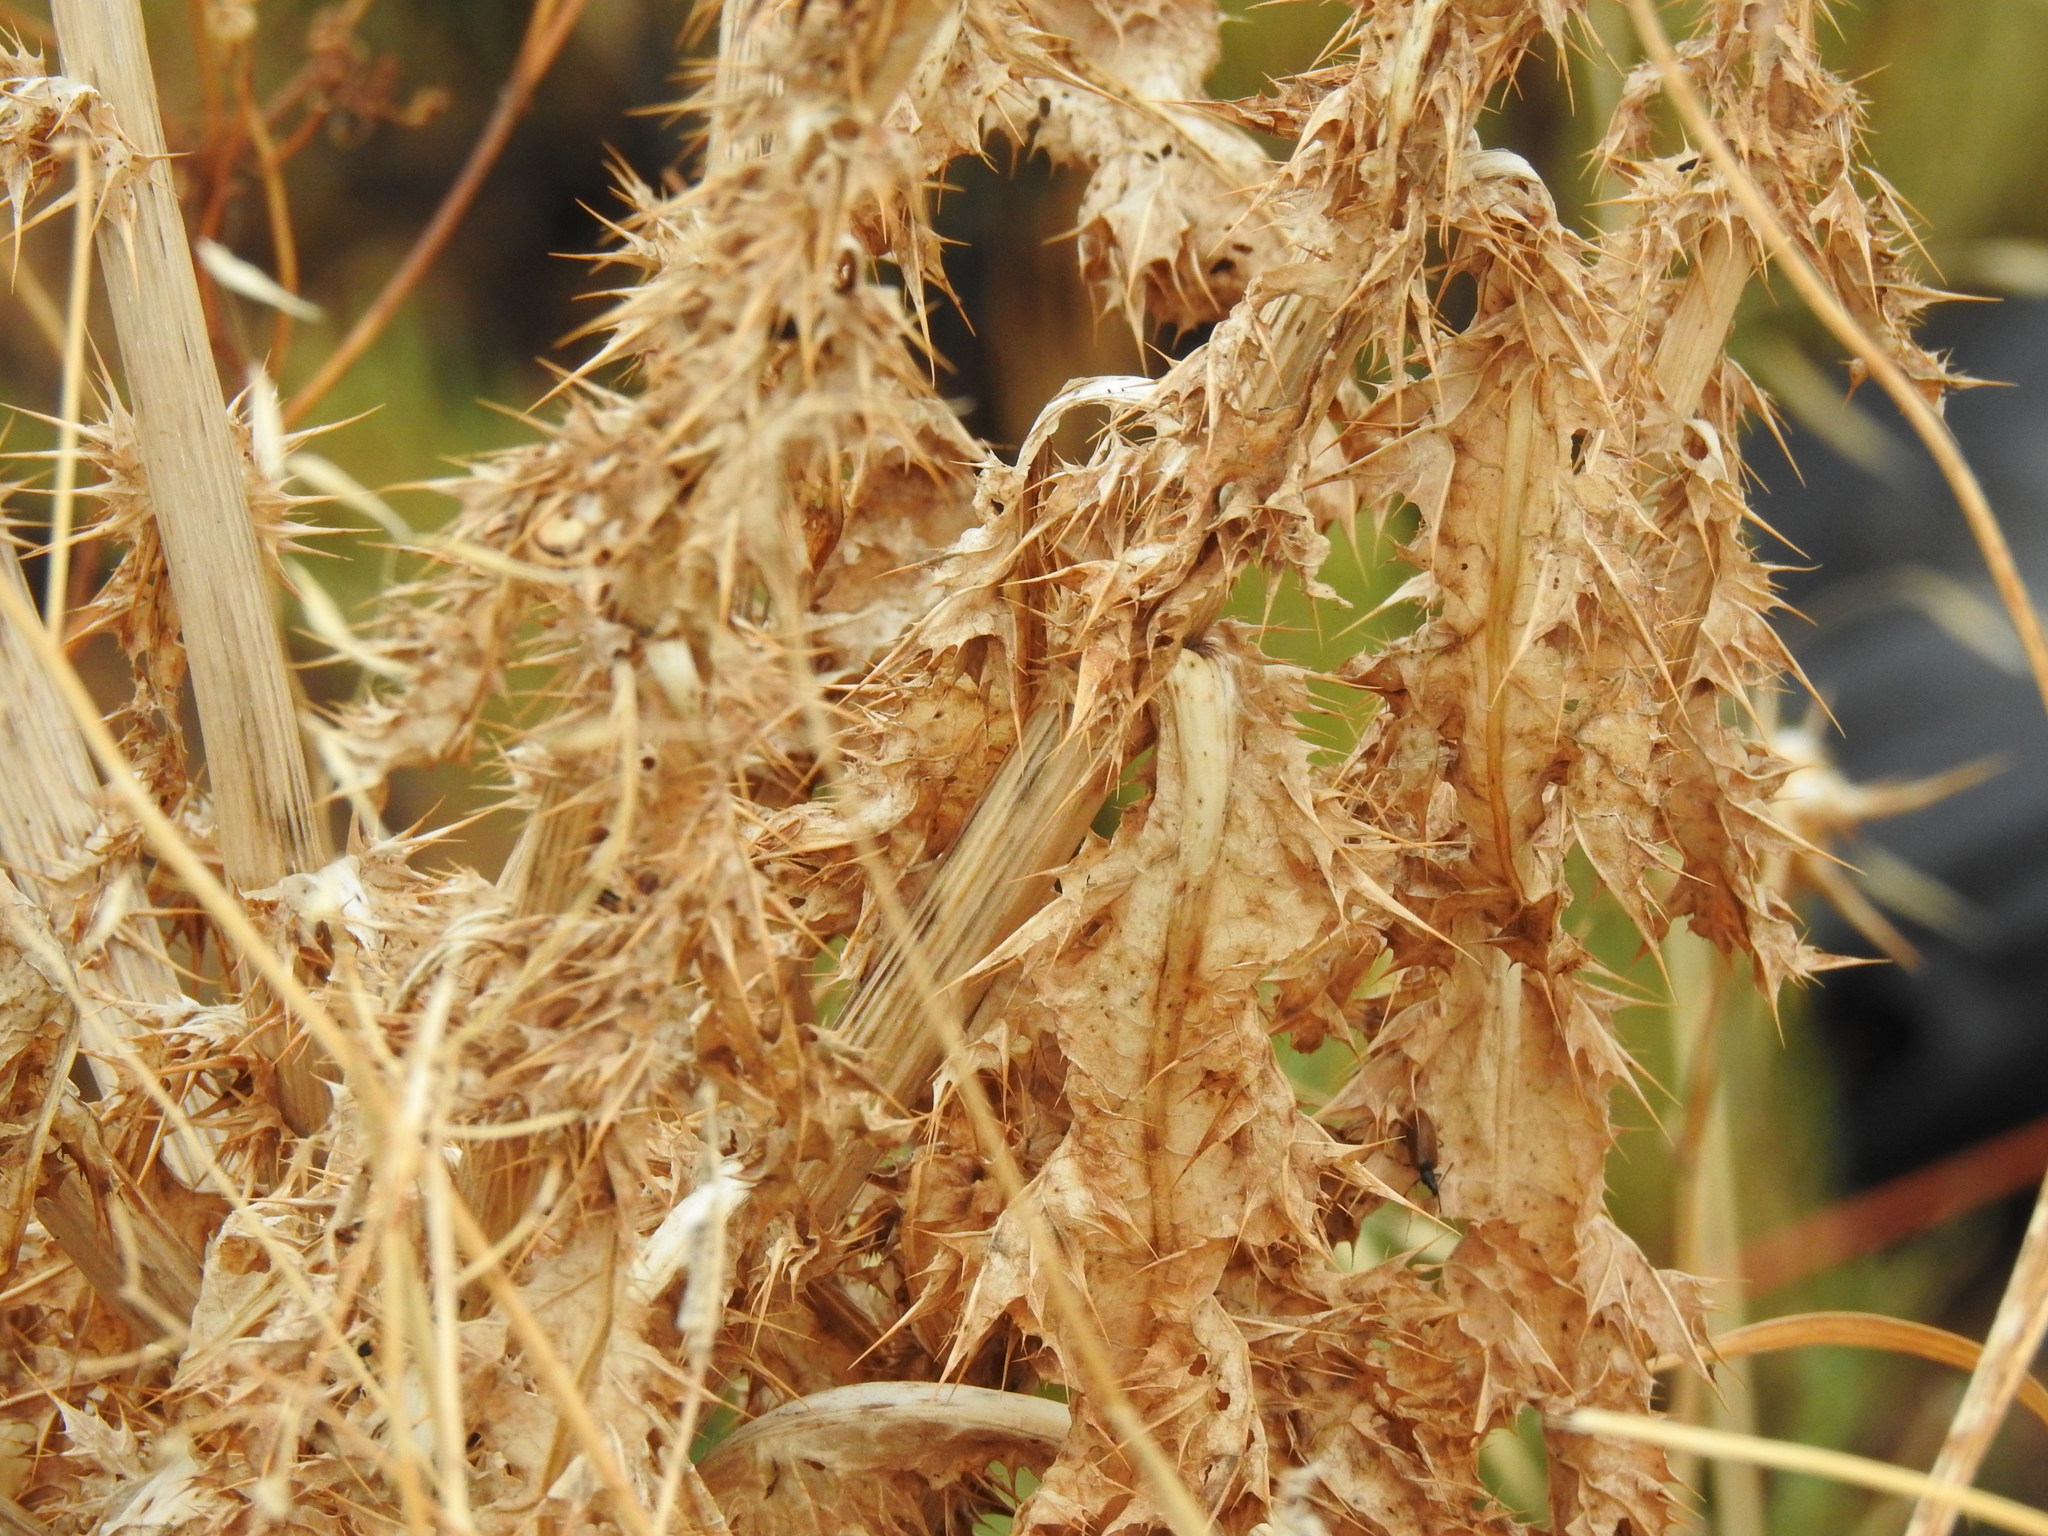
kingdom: Plantae
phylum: Tracheophyta
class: Magnoliopsida
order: Asterales
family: Asteraceae
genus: Silybum
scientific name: Silybum marianum
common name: Milk thistle
